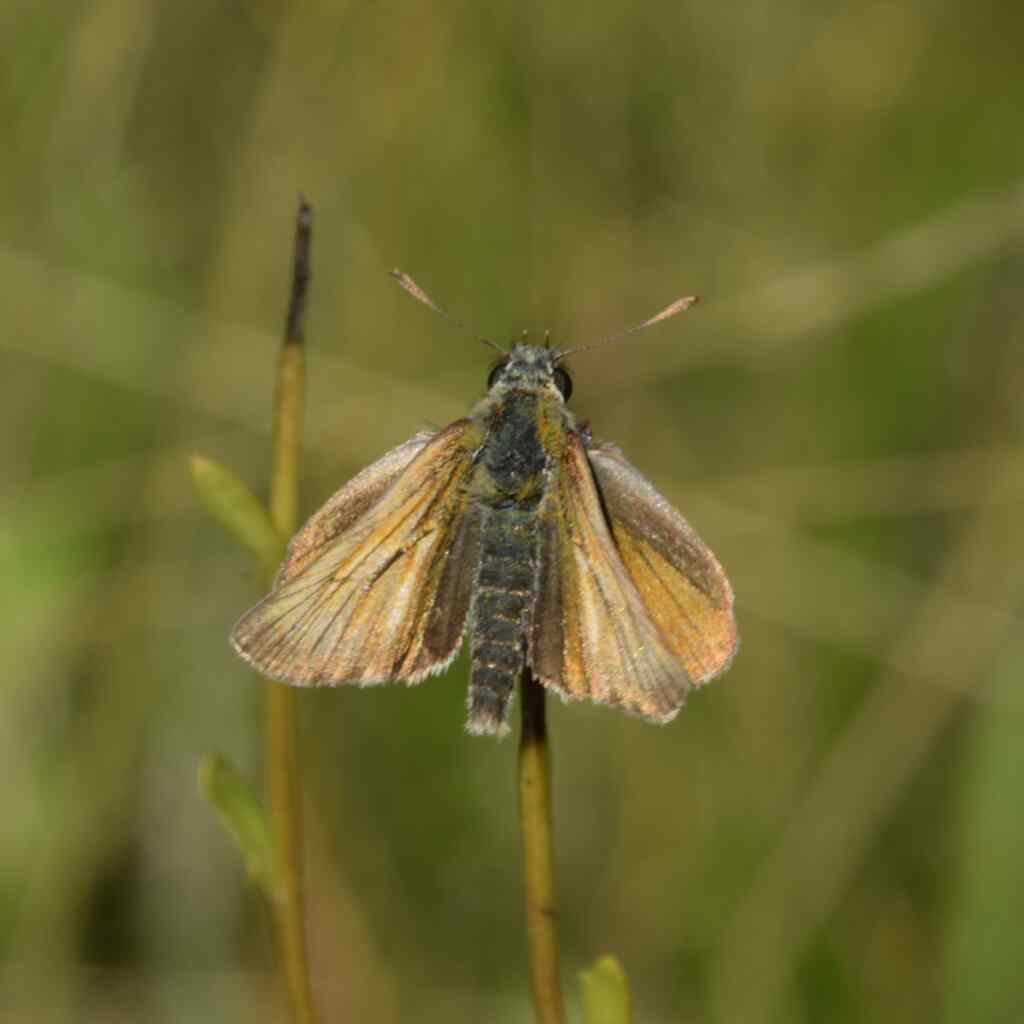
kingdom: Animalia
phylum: Arthropoda
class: Insecta
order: Lepidoptera
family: Hesperiidae
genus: Thymelicus
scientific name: Thymelicus sylvestris
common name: Small skipper
